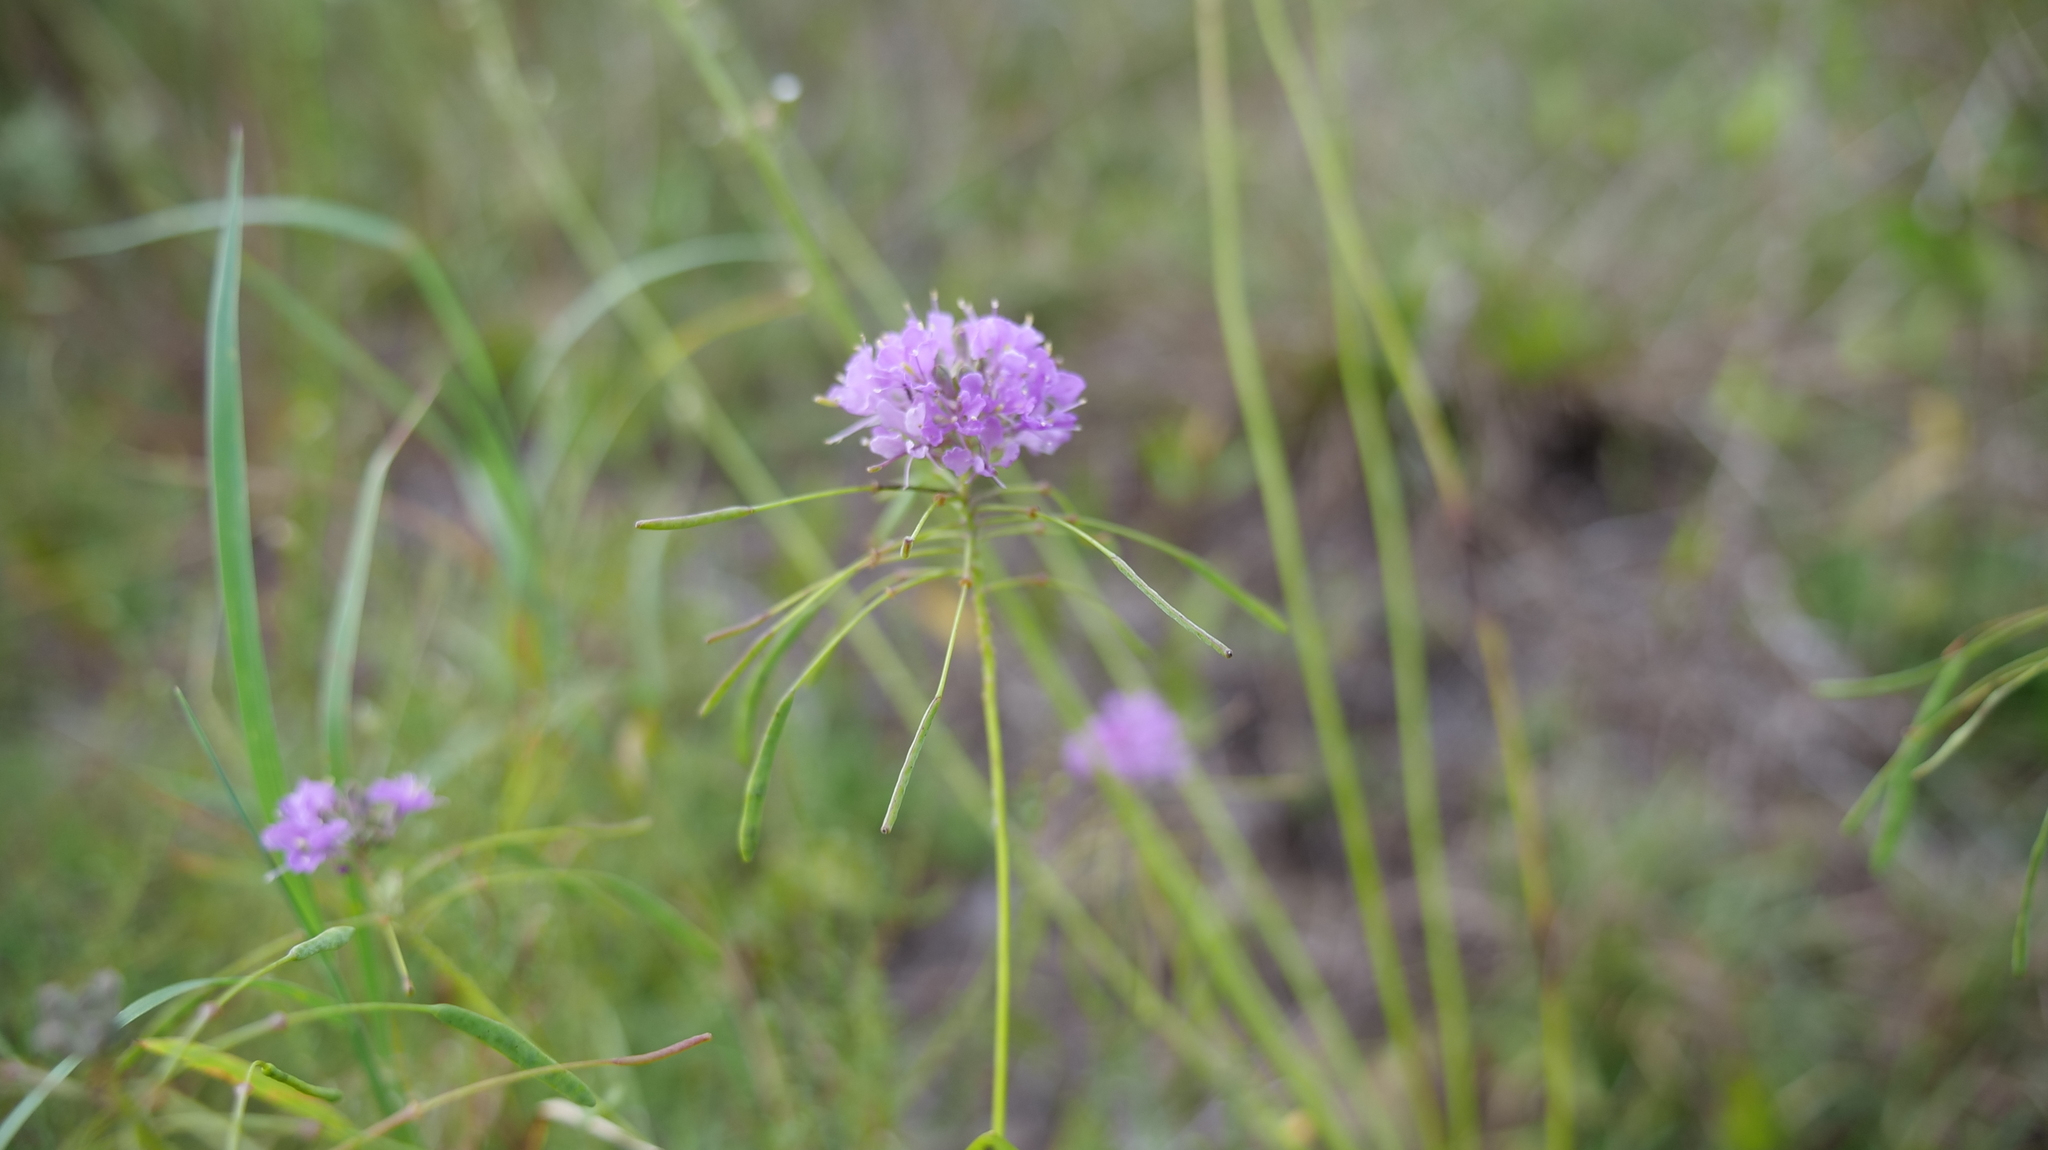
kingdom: Plantae
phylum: Tracheophyta
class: Magnoliopsida
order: Brassicales
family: Brassicaceae
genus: Warea
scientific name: Warea amplexifolia
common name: Wide-leaf warea
